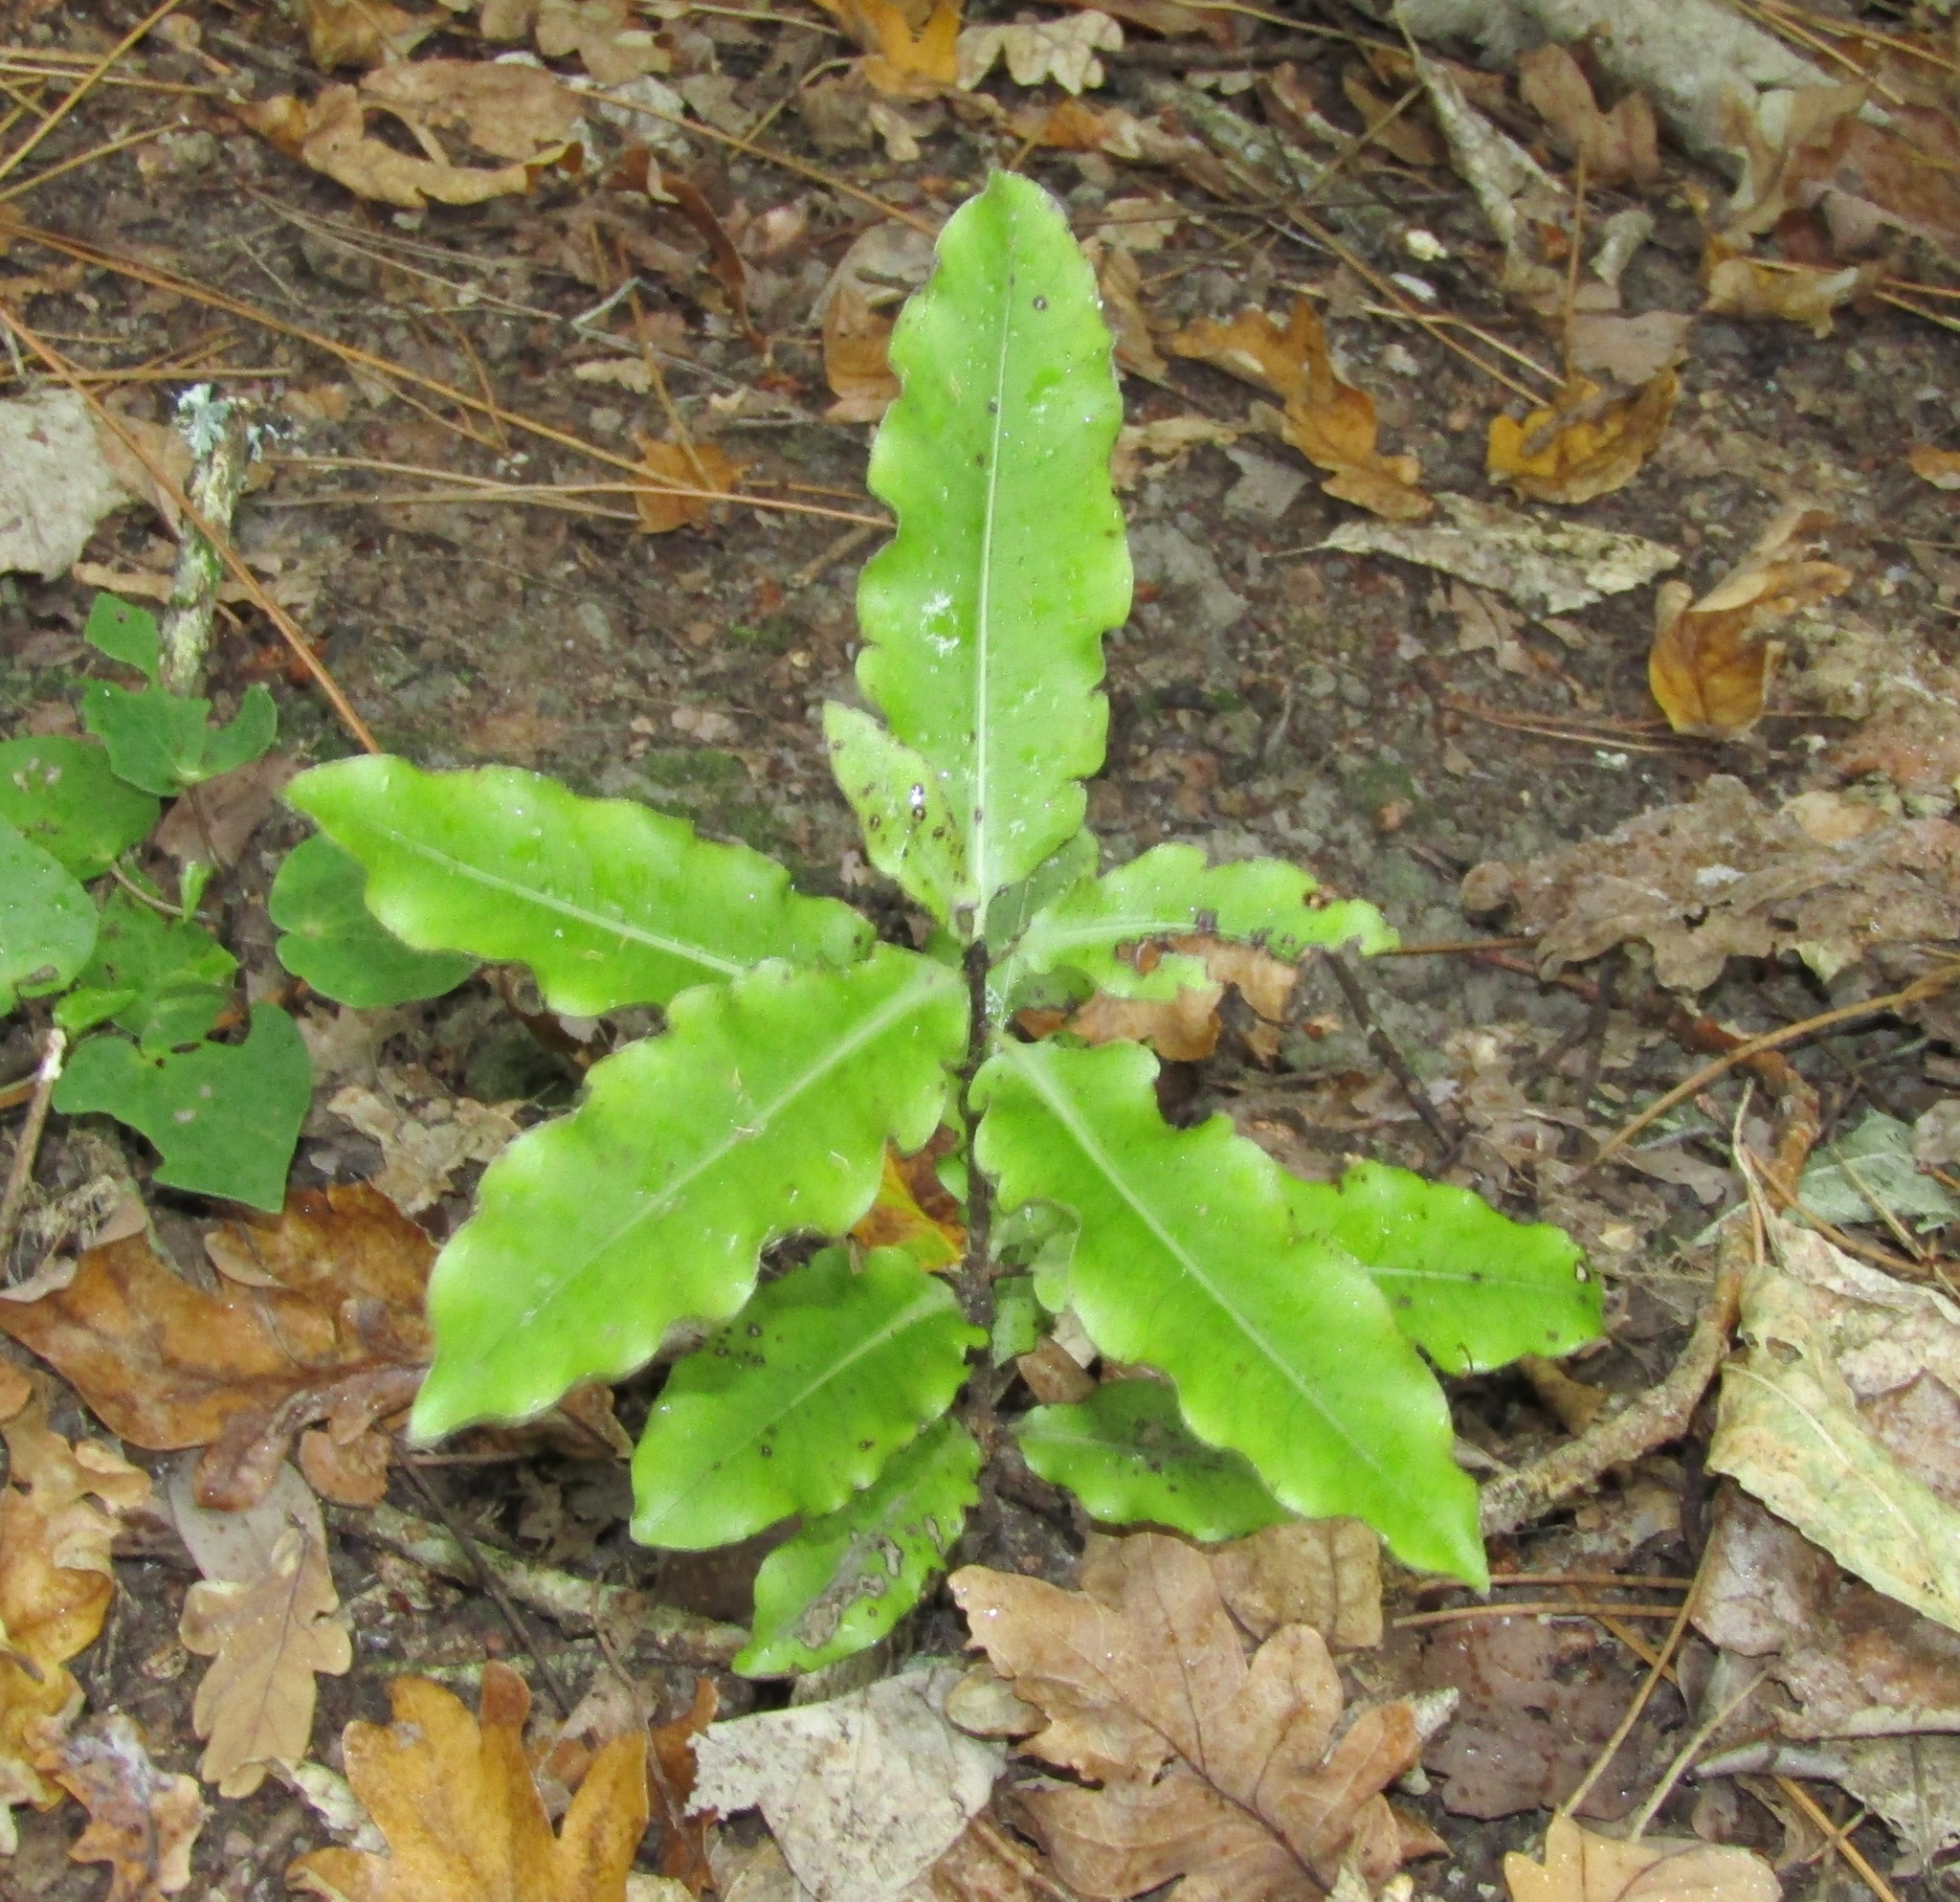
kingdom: Plantae
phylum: Tracheophyta
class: Magnoliopsida
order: Apiales
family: Pittosporaceae
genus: Pittosporum
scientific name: Pittosporum eugenioides
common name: Lemonwood
